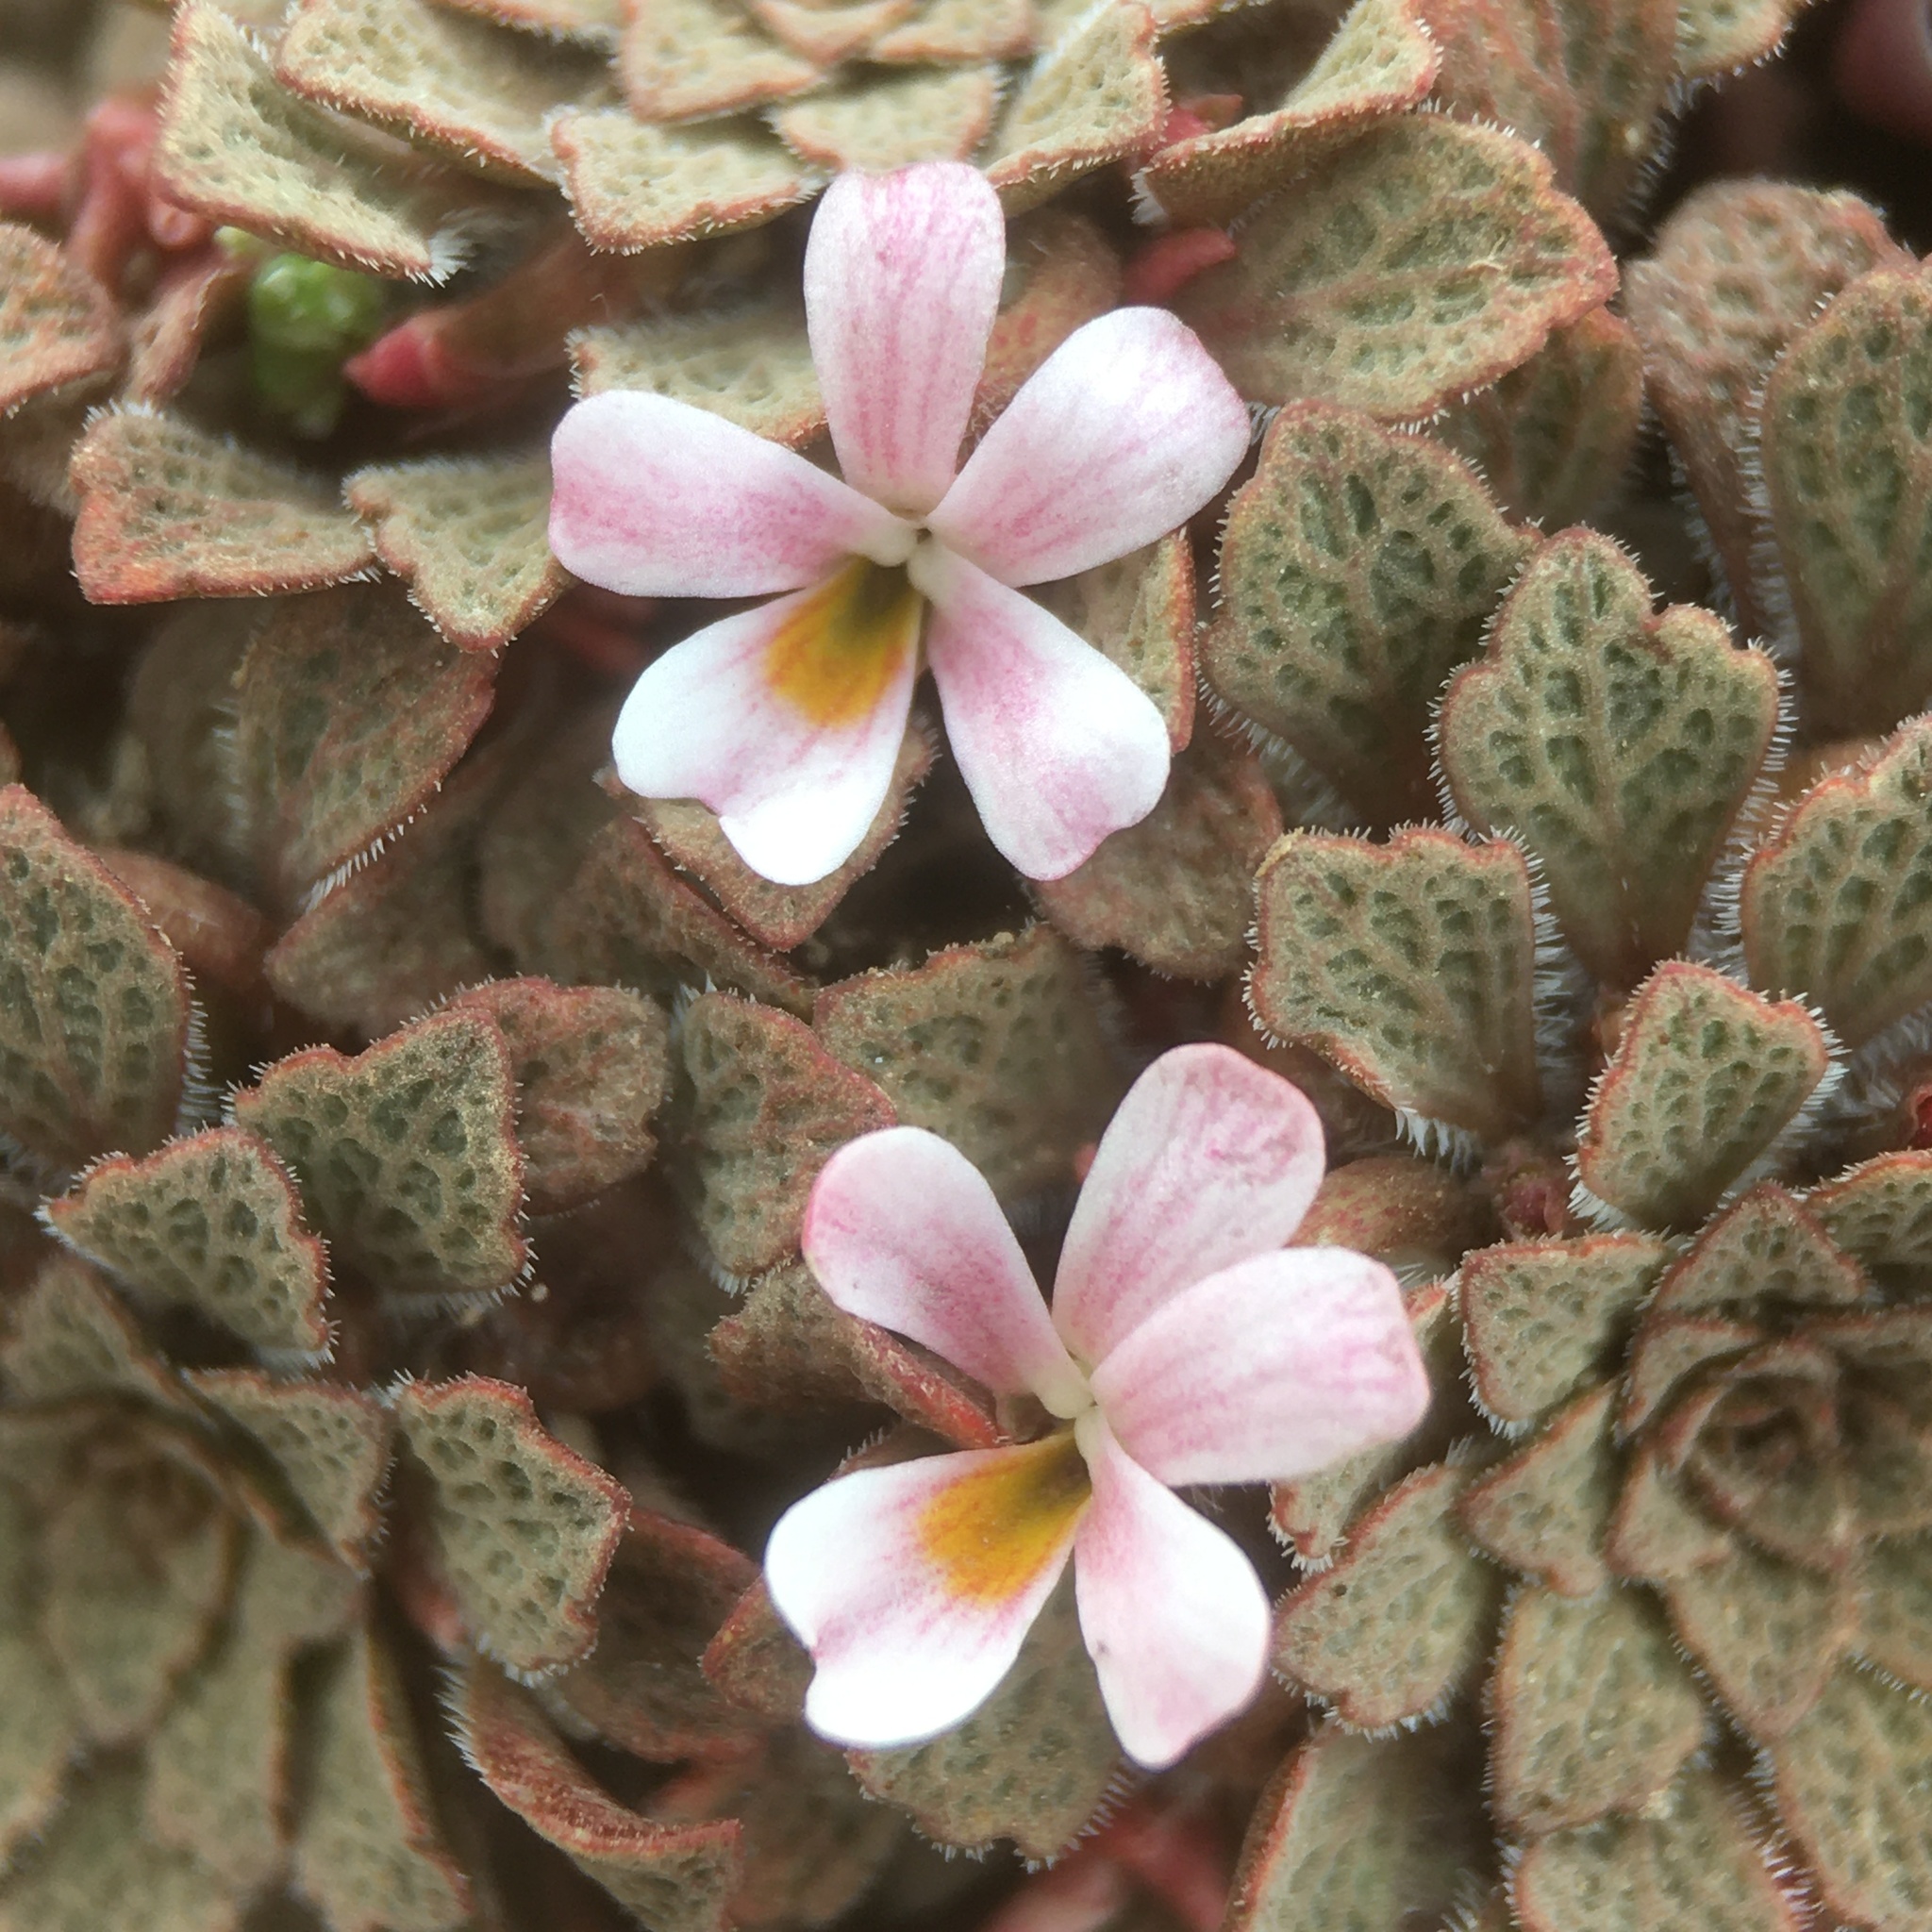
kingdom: Plantae
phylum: Tracheophyta
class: Magnoliopsida
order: Malpighiales
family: Violaceae
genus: Viola
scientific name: Viola
